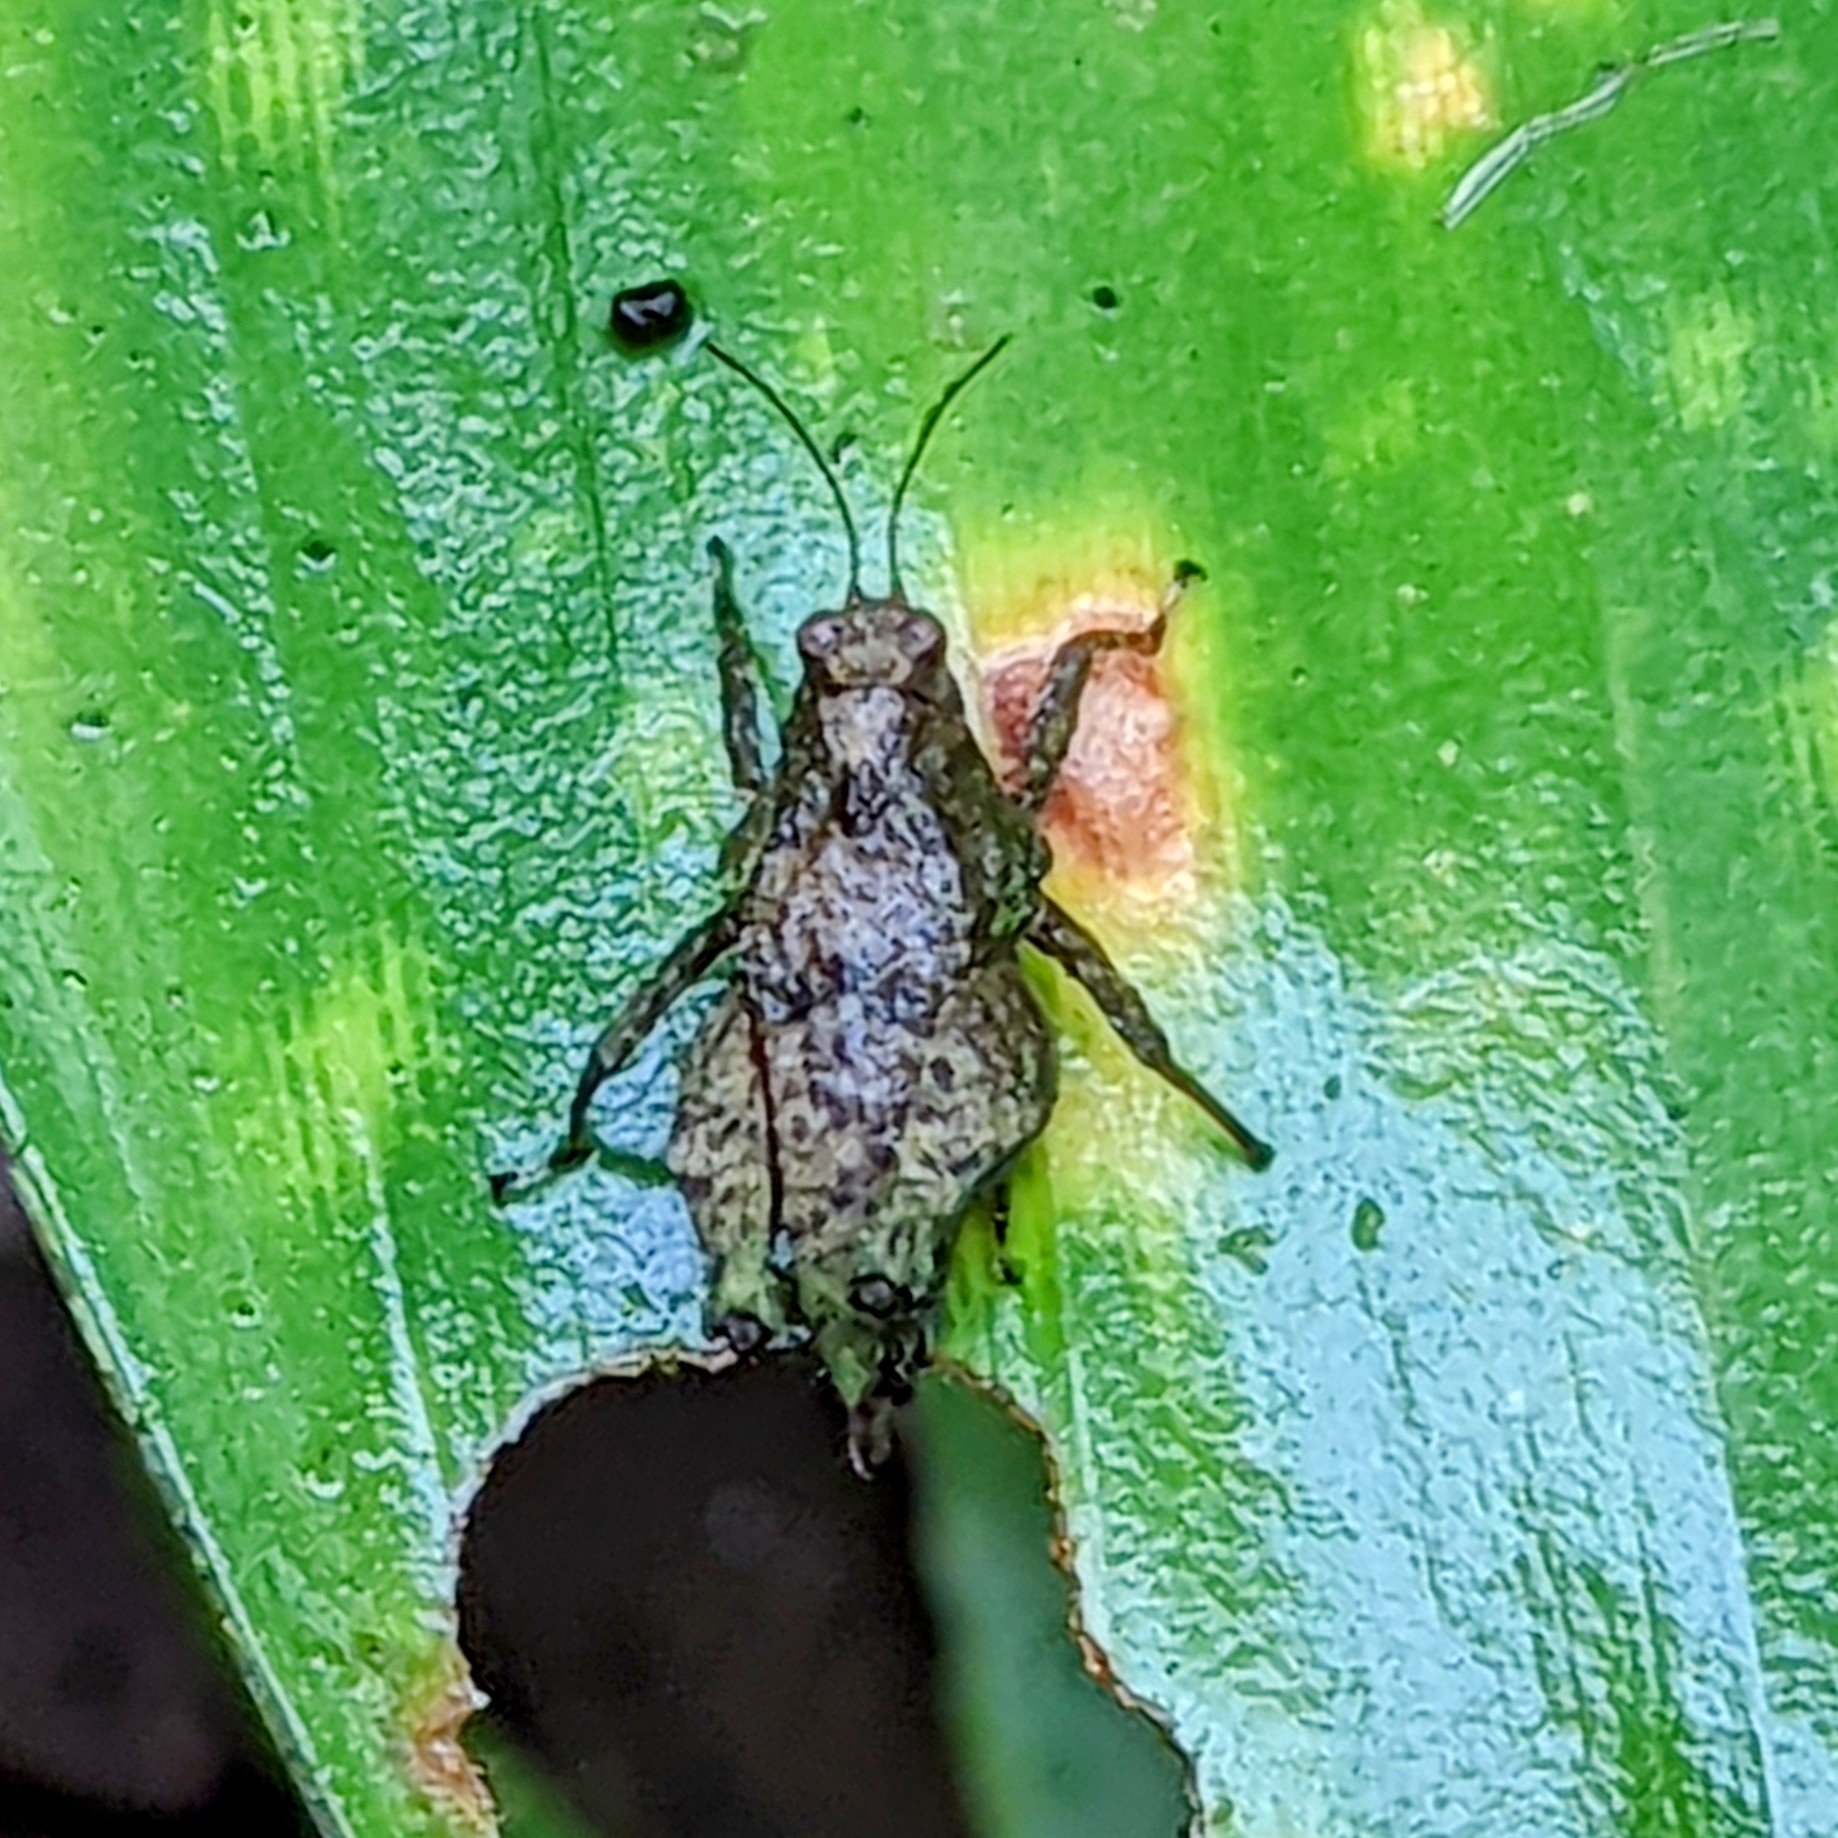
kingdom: Animalia
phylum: Arthropoda
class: Insecta
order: Orthoptera
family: Tetrigidae
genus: Platythorus
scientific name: Platythorus camurus
